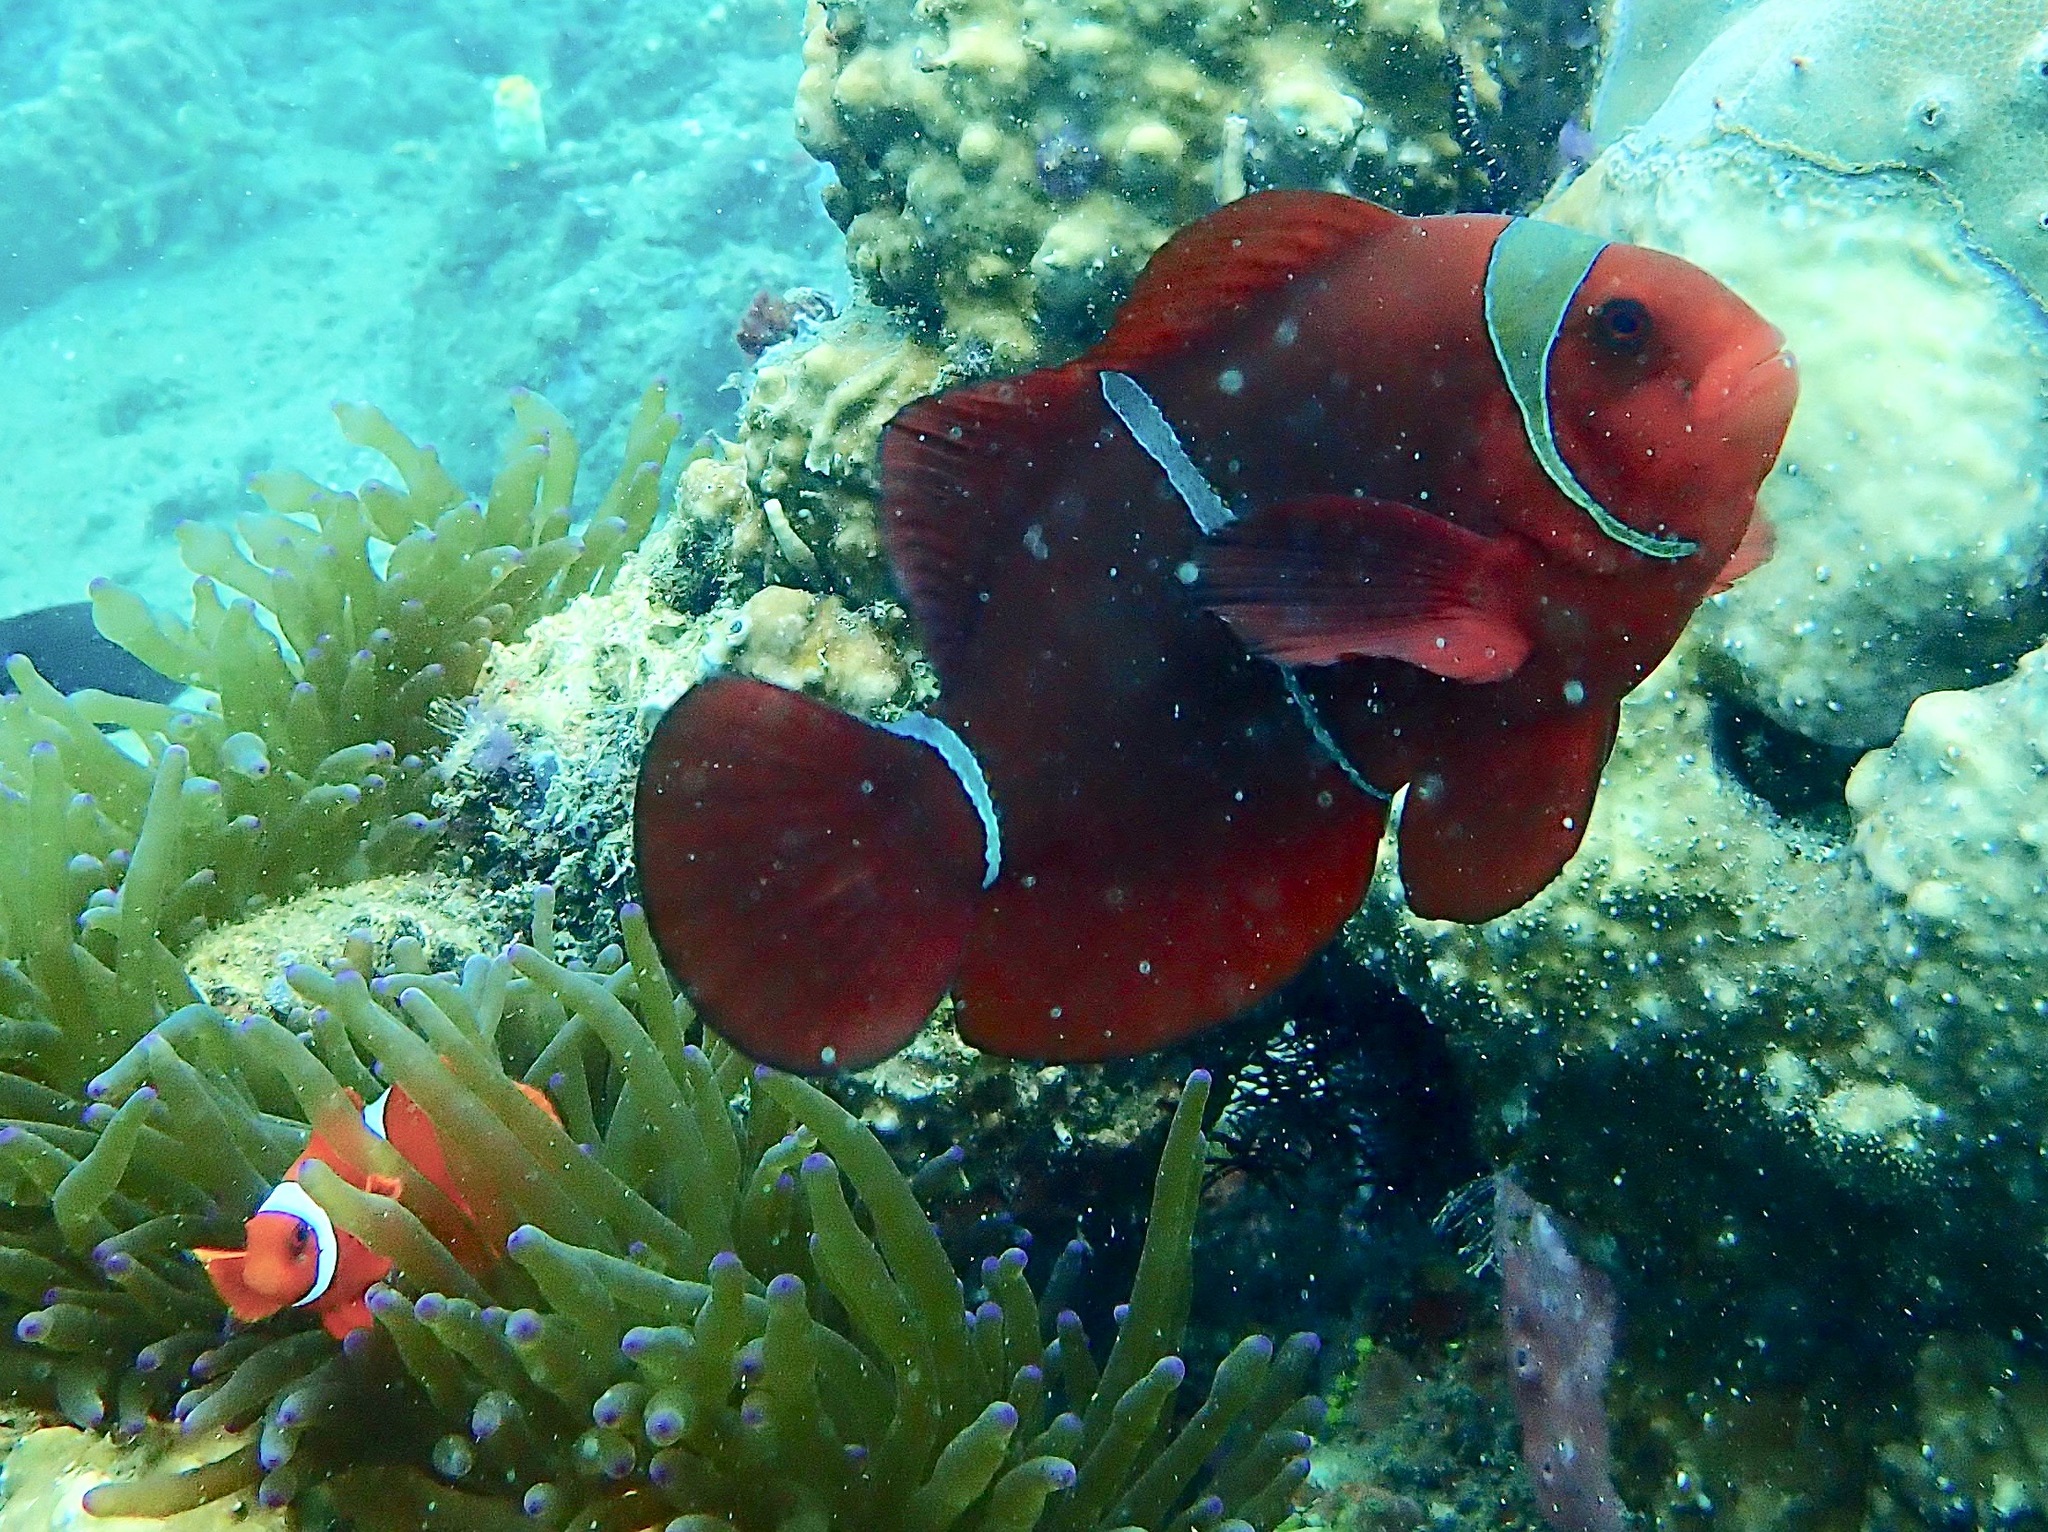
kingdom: Animalia
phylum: Chordata
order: Perciformes
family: Pomacentridae
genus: Premnas
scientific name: Premnas biaculeatus
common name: Spinecheek anemonefish
